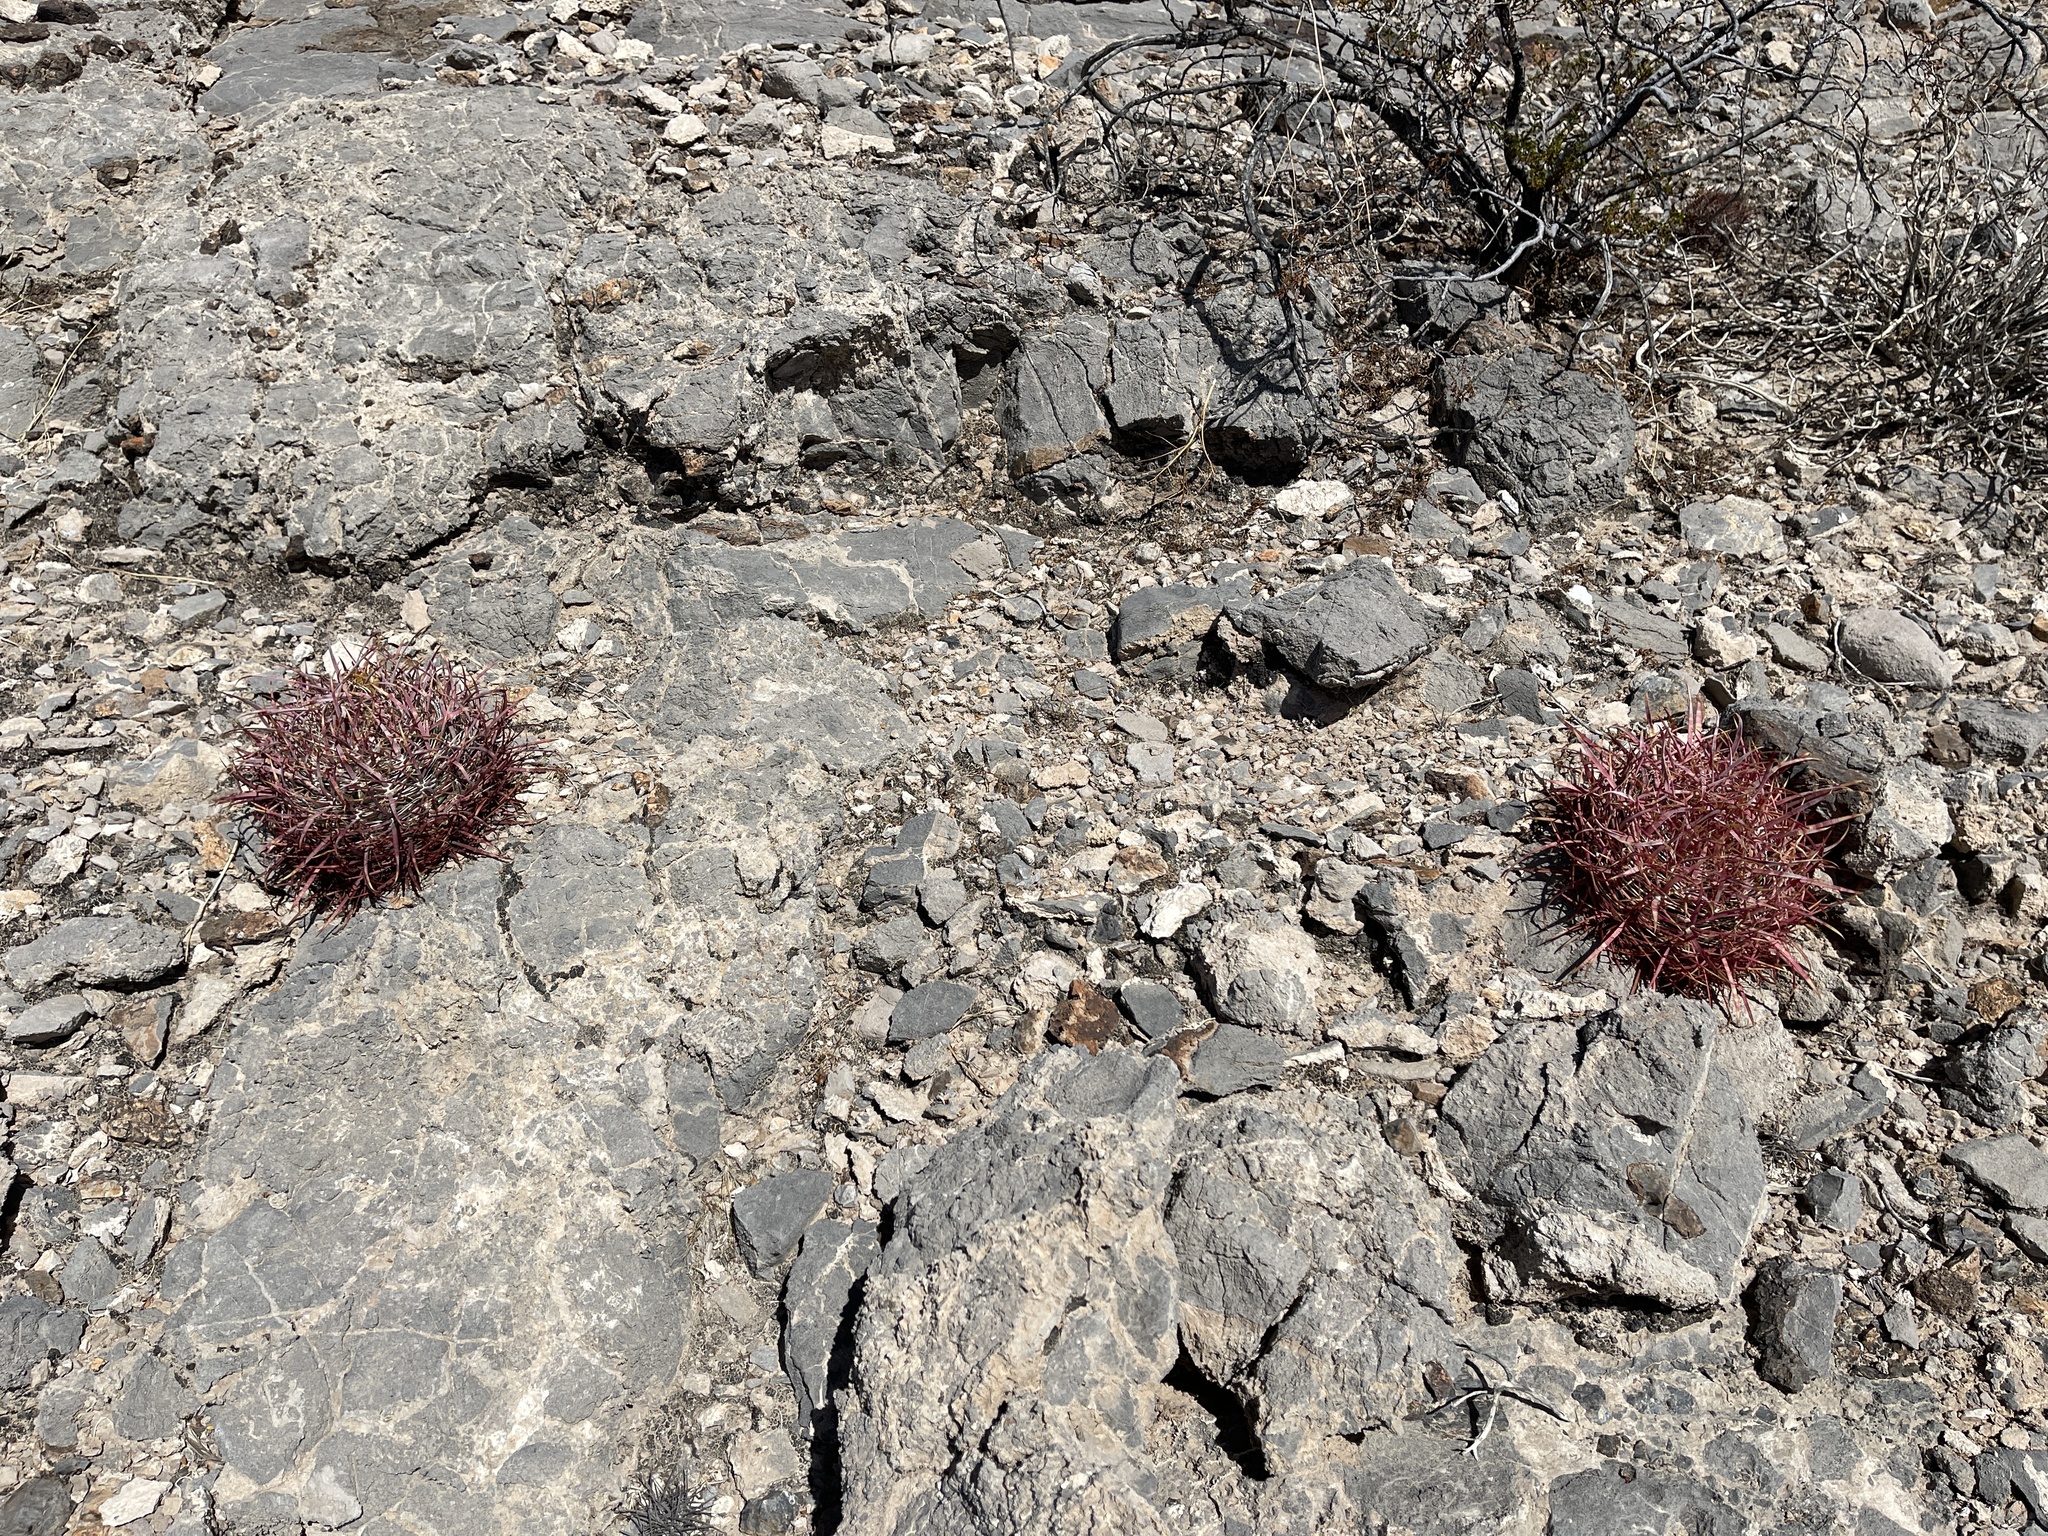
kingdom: Plantae
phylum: Tracheophyta
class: Magnoliopsida
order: Caryophyllales
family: Cactaceae
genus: Ferocactus
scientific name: Ferocactus cylindraceus
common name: California barrel cactus
